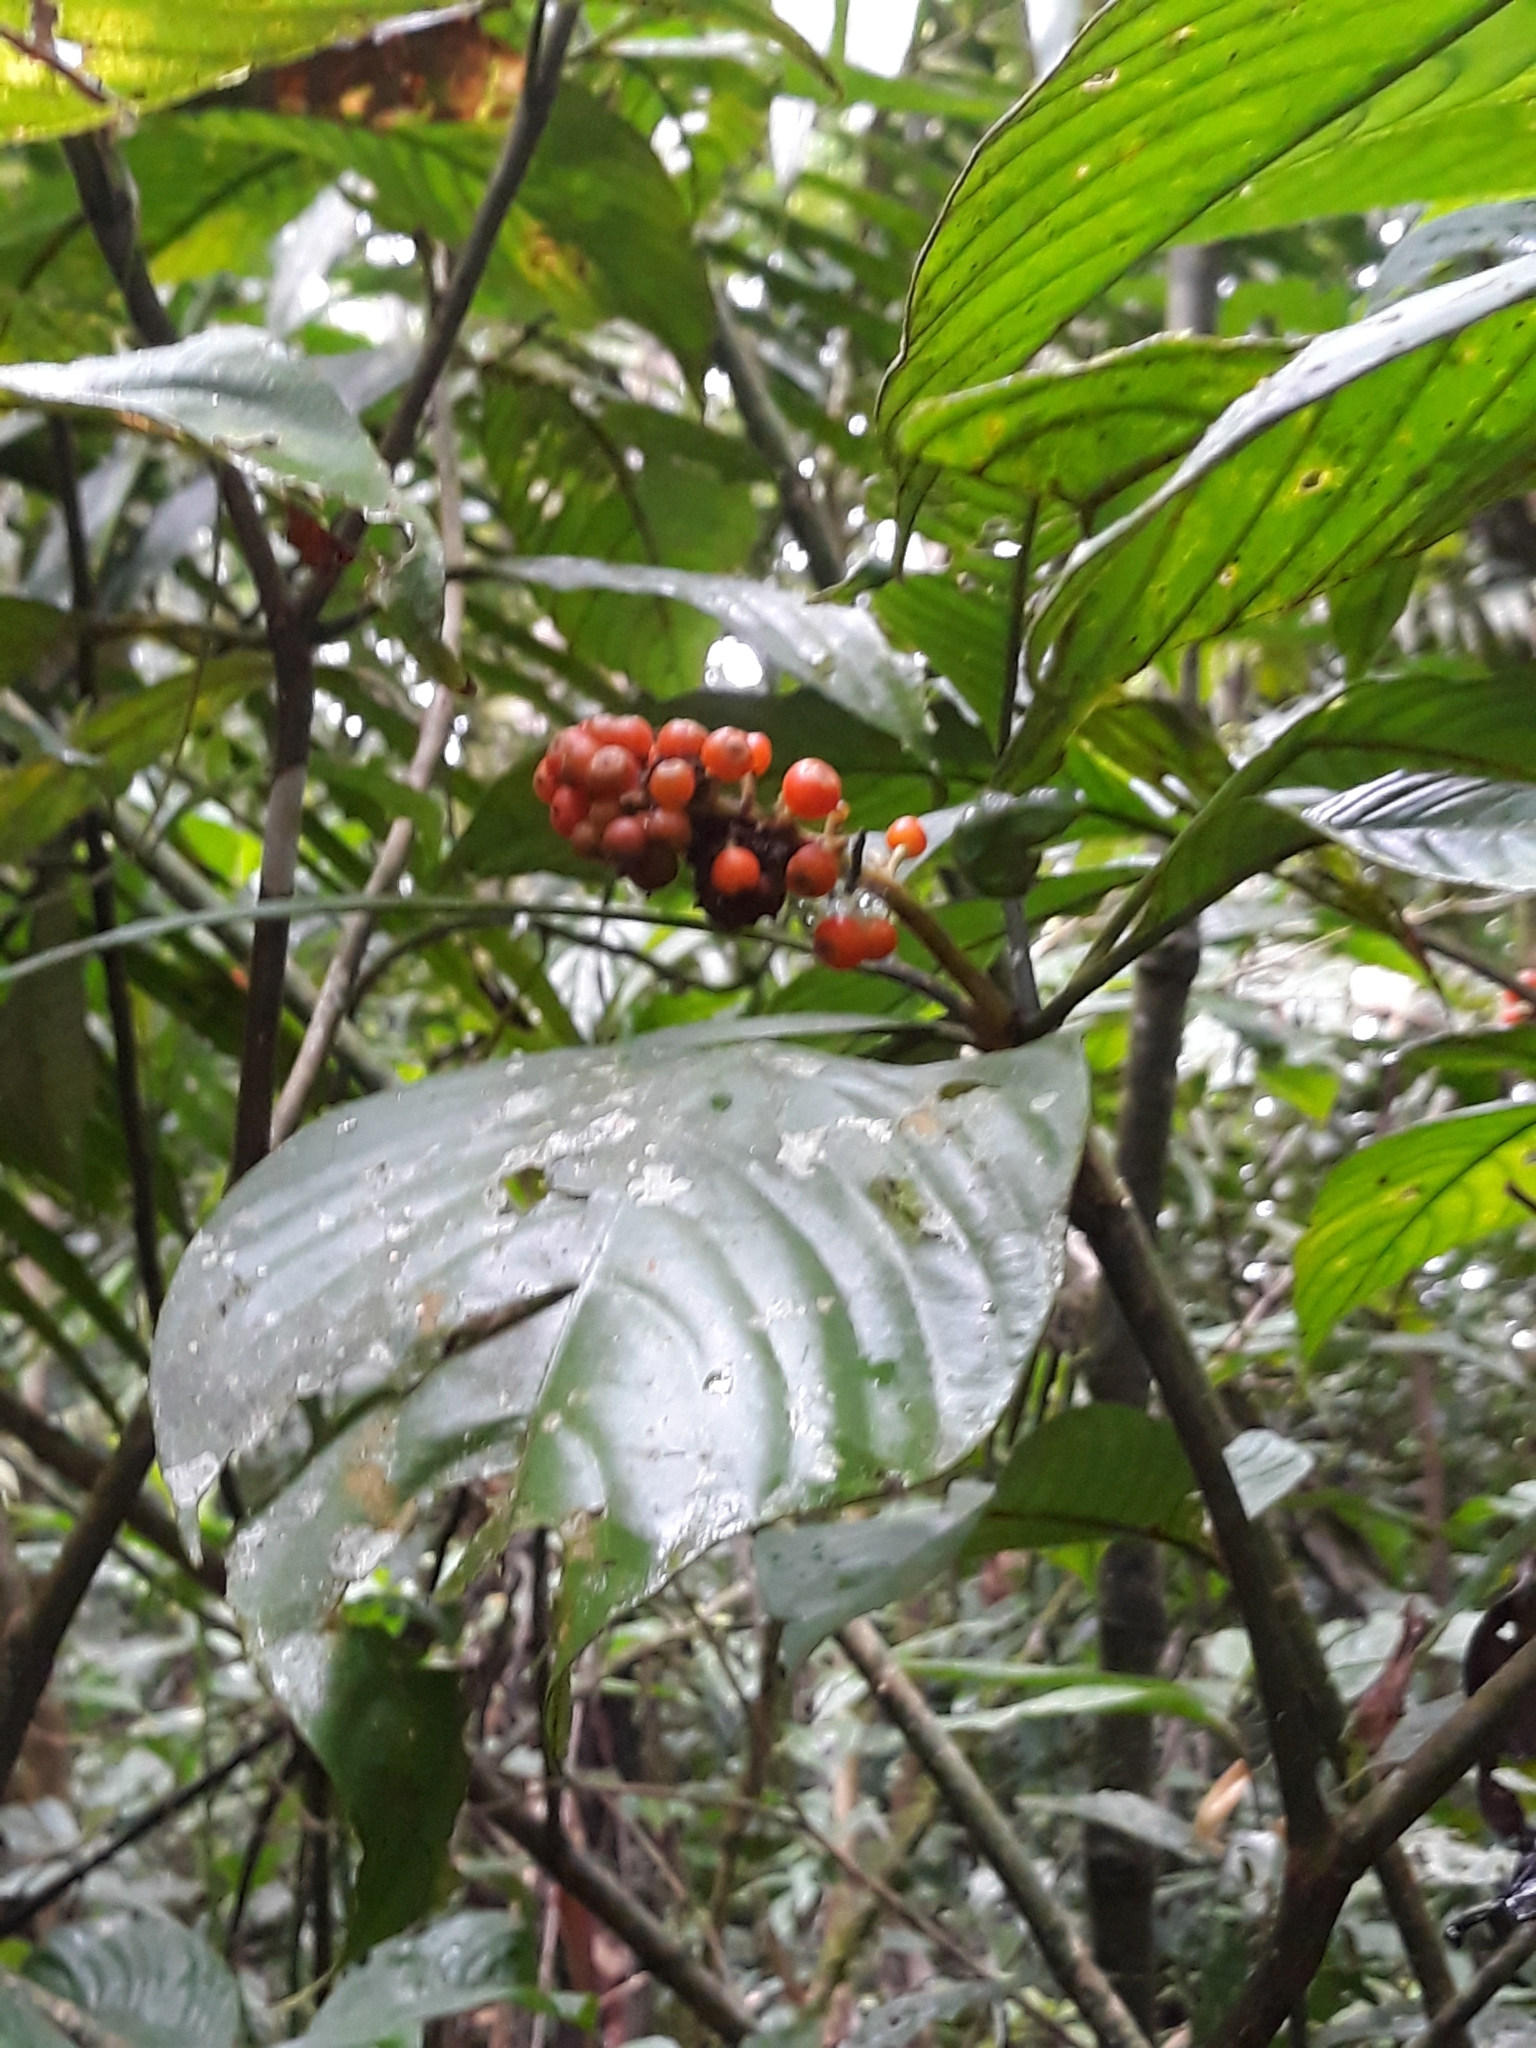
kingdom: Plantae
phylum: Tracheophyta
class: Magnoliopsida
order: Gentianales
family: Rubiaceae
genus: Palicourea
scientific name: Palicourea stenostachya
